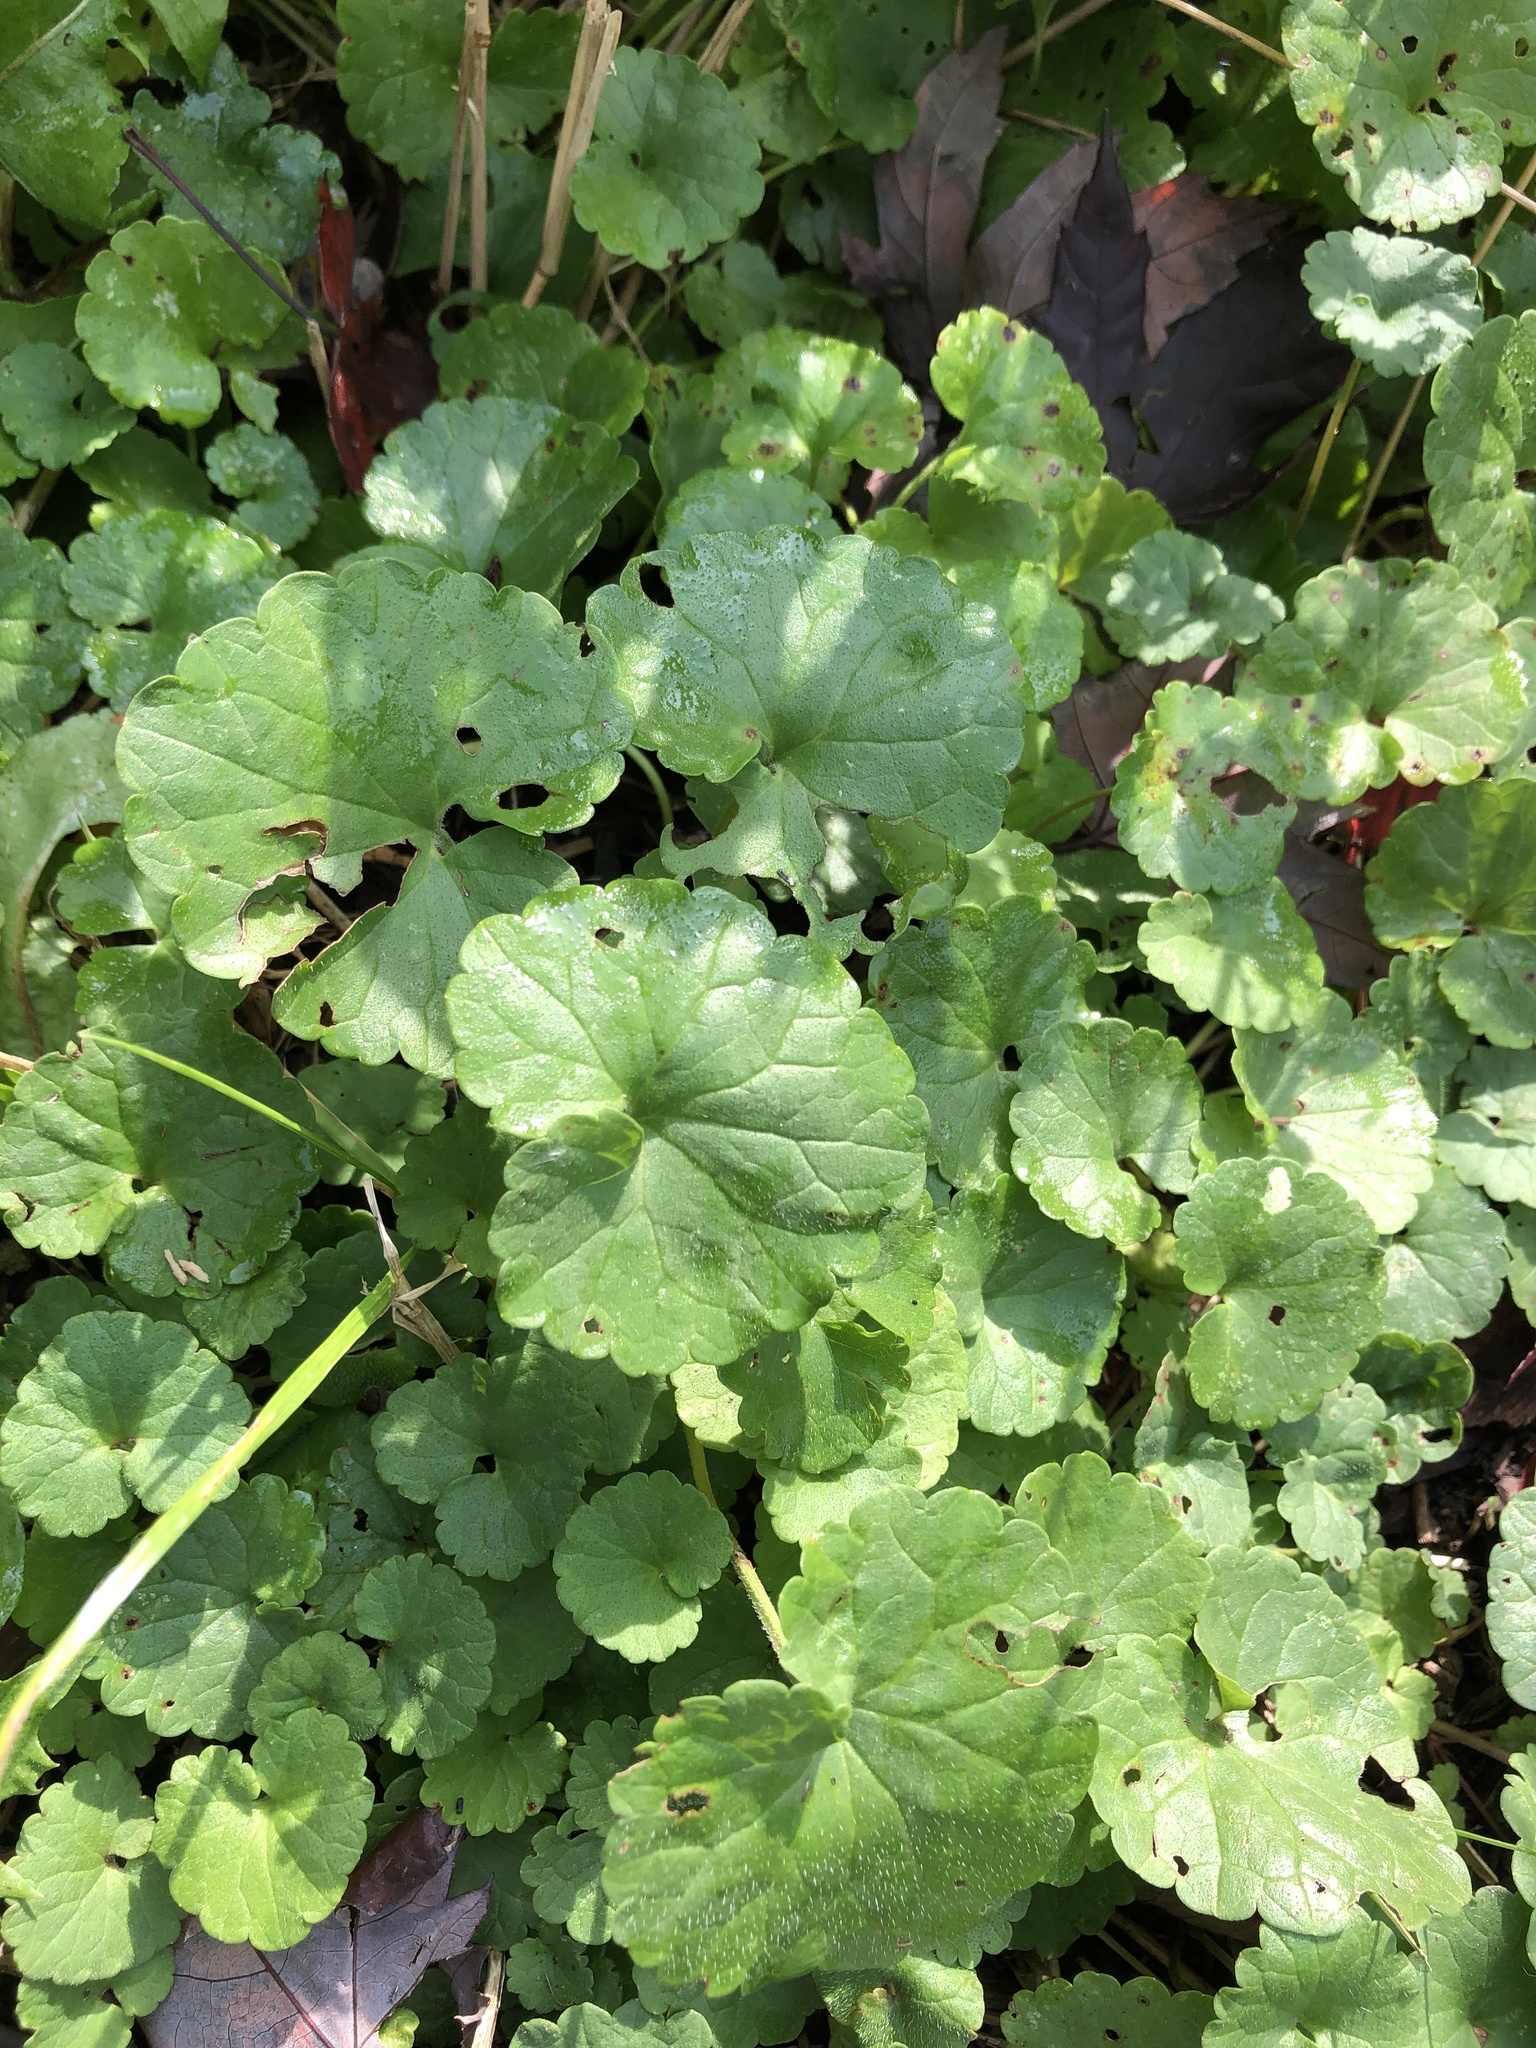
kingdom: Plantae
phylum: Tracheophyta
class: Magnoliopsida
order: Lamiales
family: Lamiaceae
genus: Glechoma
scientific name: Glechoma hederacea
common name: Ground ivy
